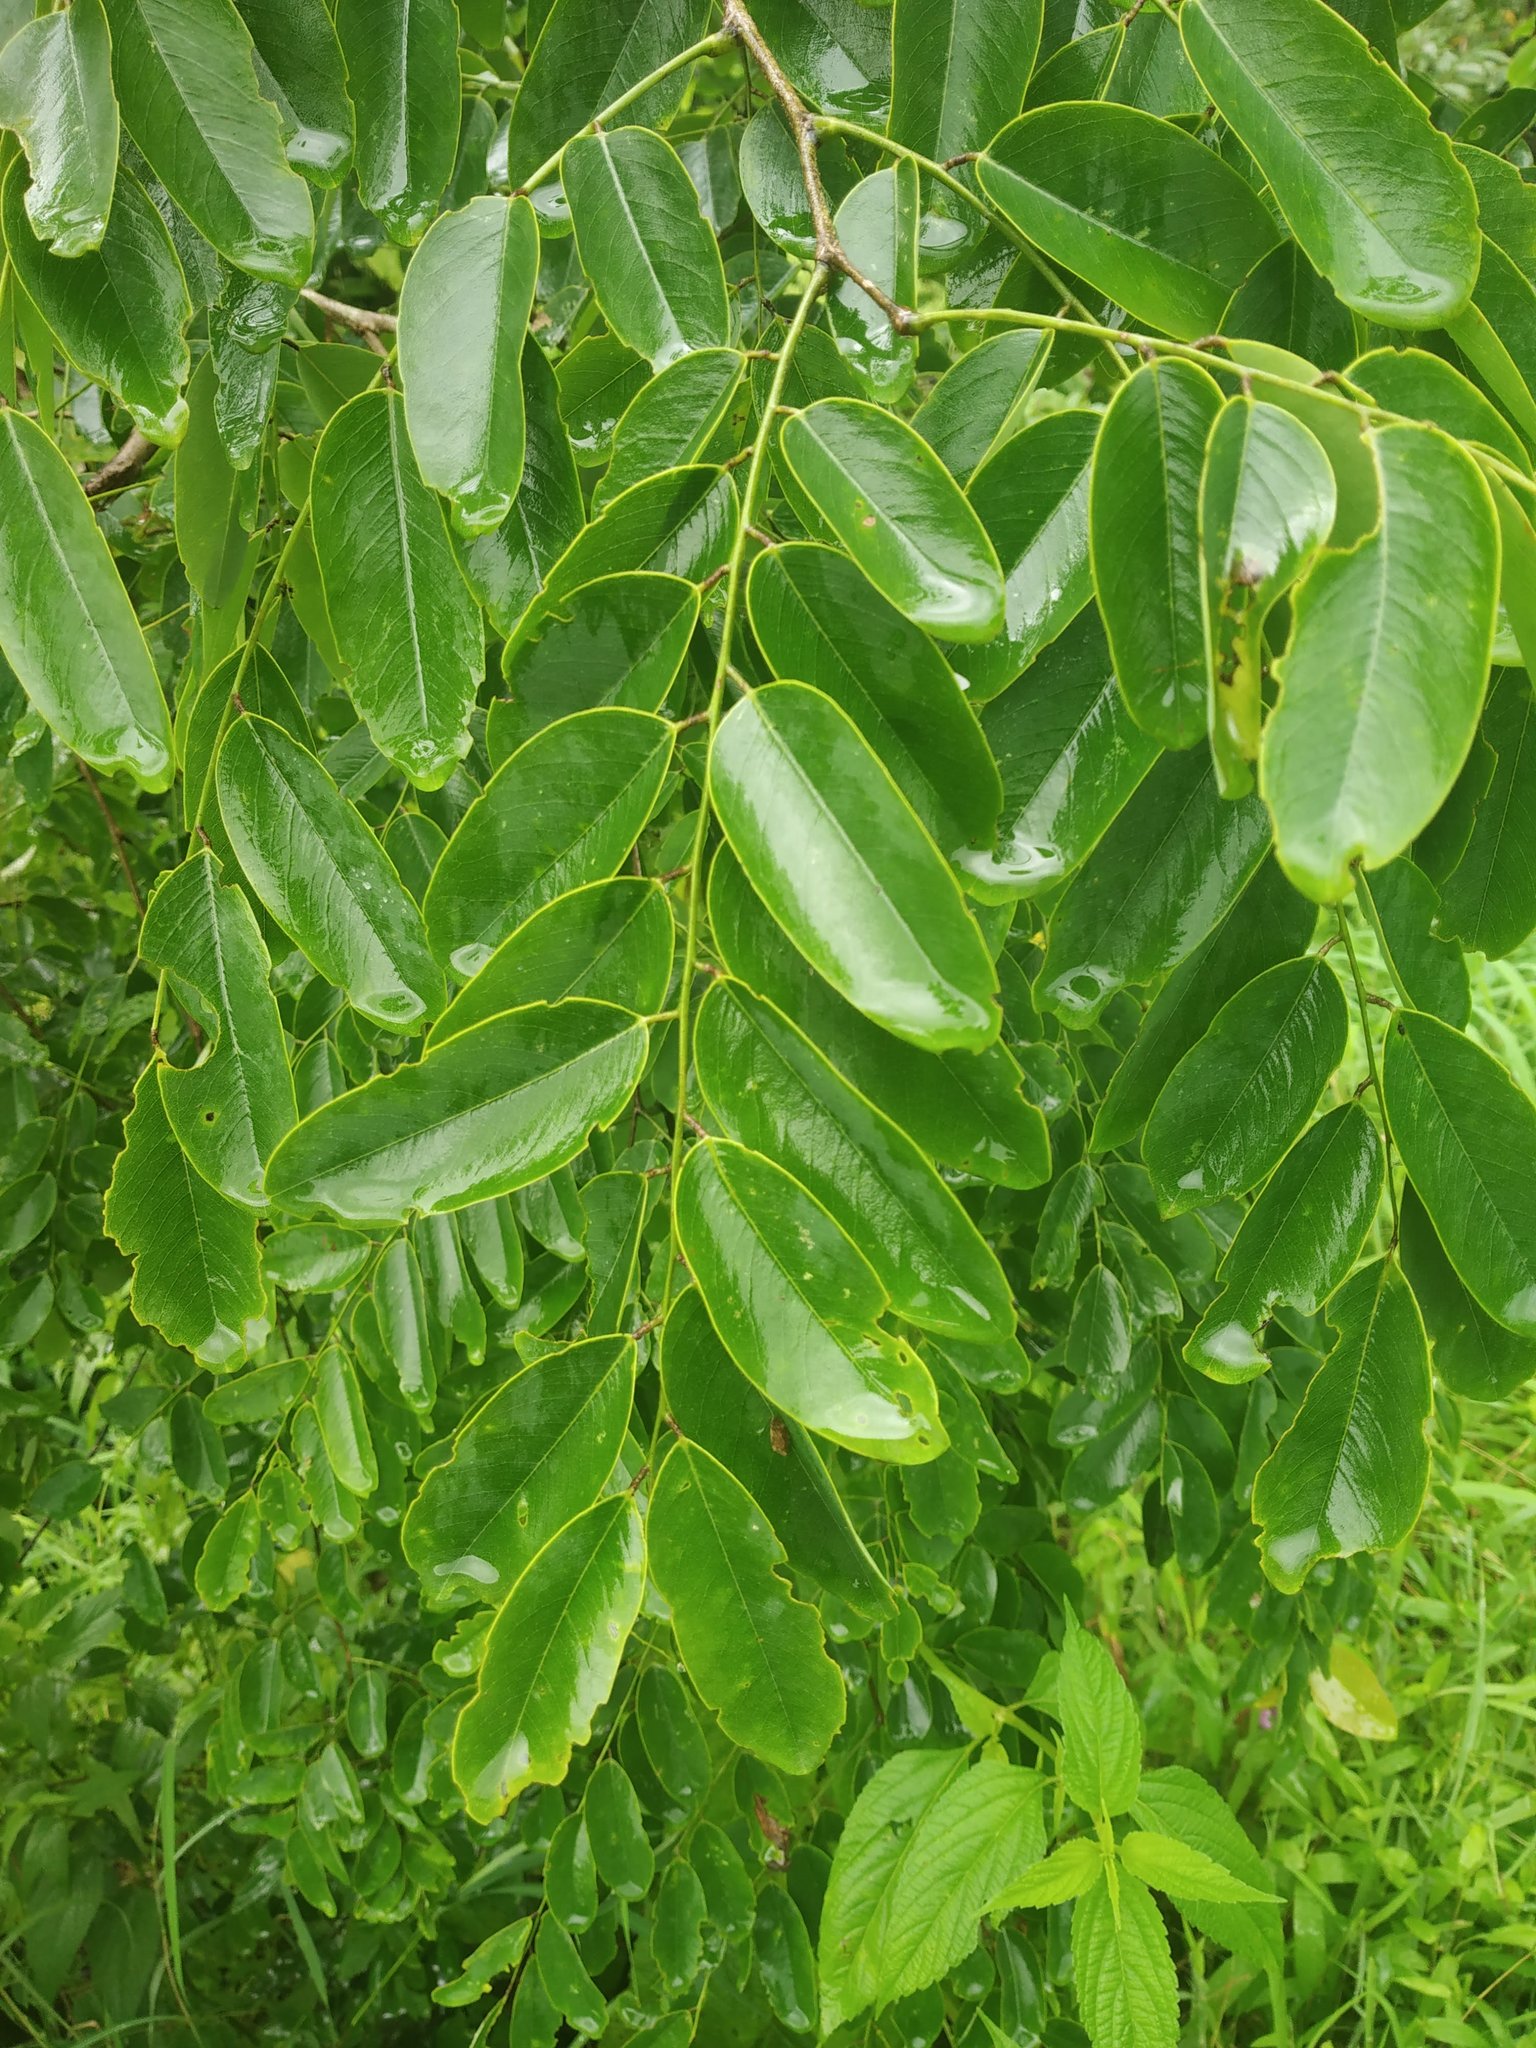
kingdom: Plantae
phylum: Tracheophyta
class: Magnoliopsida
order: Fabales
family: Fabaceae
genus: Dalbergia
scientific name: Dalbergia lanceolaria
